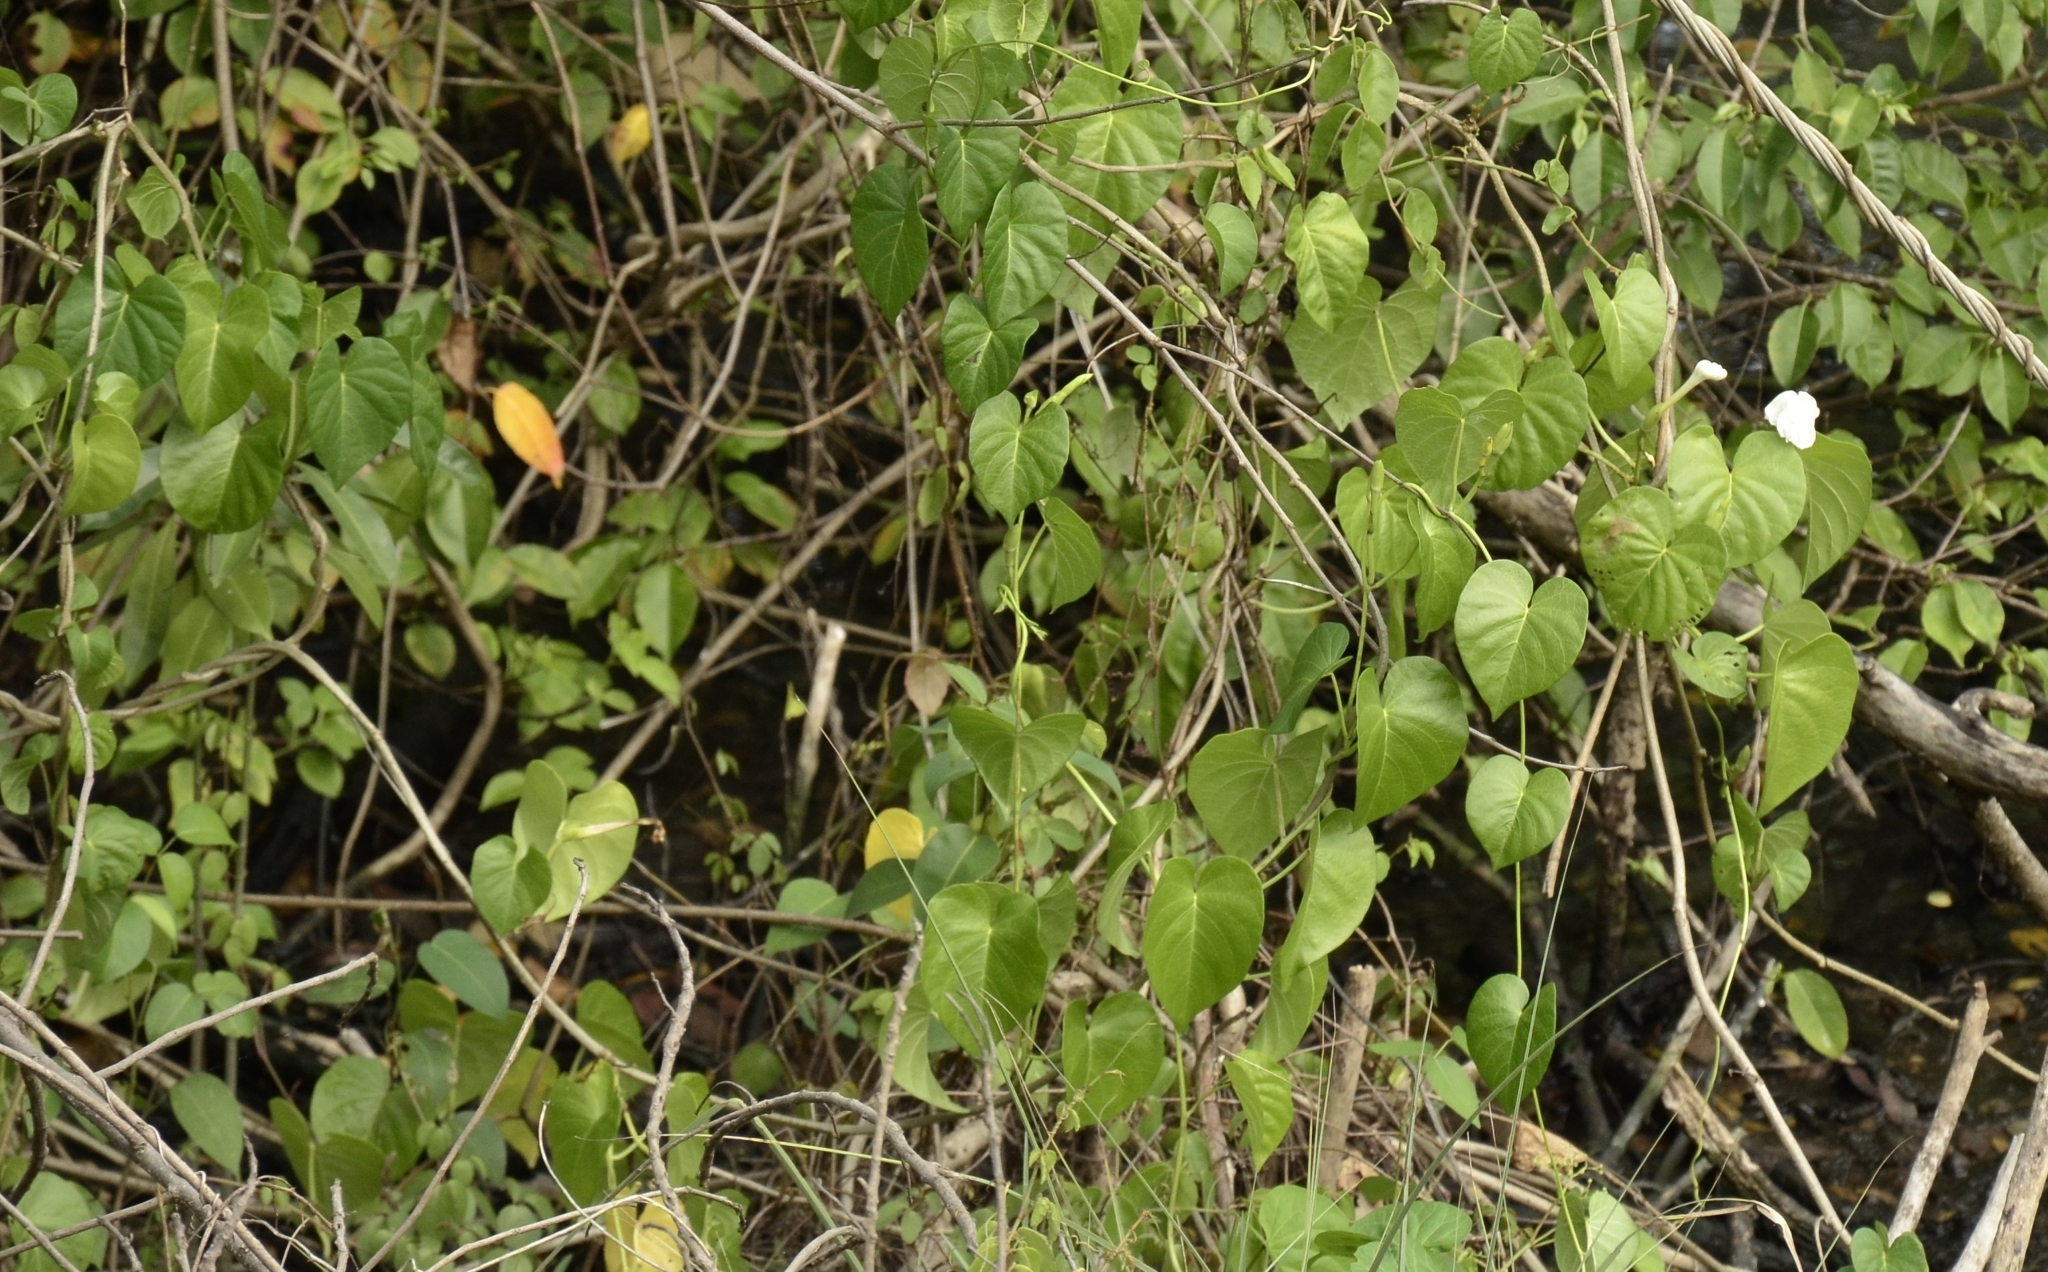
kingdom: Plantae
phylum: Tracheophyta
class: Magnoliopsida
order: Solanales
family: Convolvulaceae
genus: Ipomoea
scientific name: Ipomoea violacea
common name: Beach moonflower
